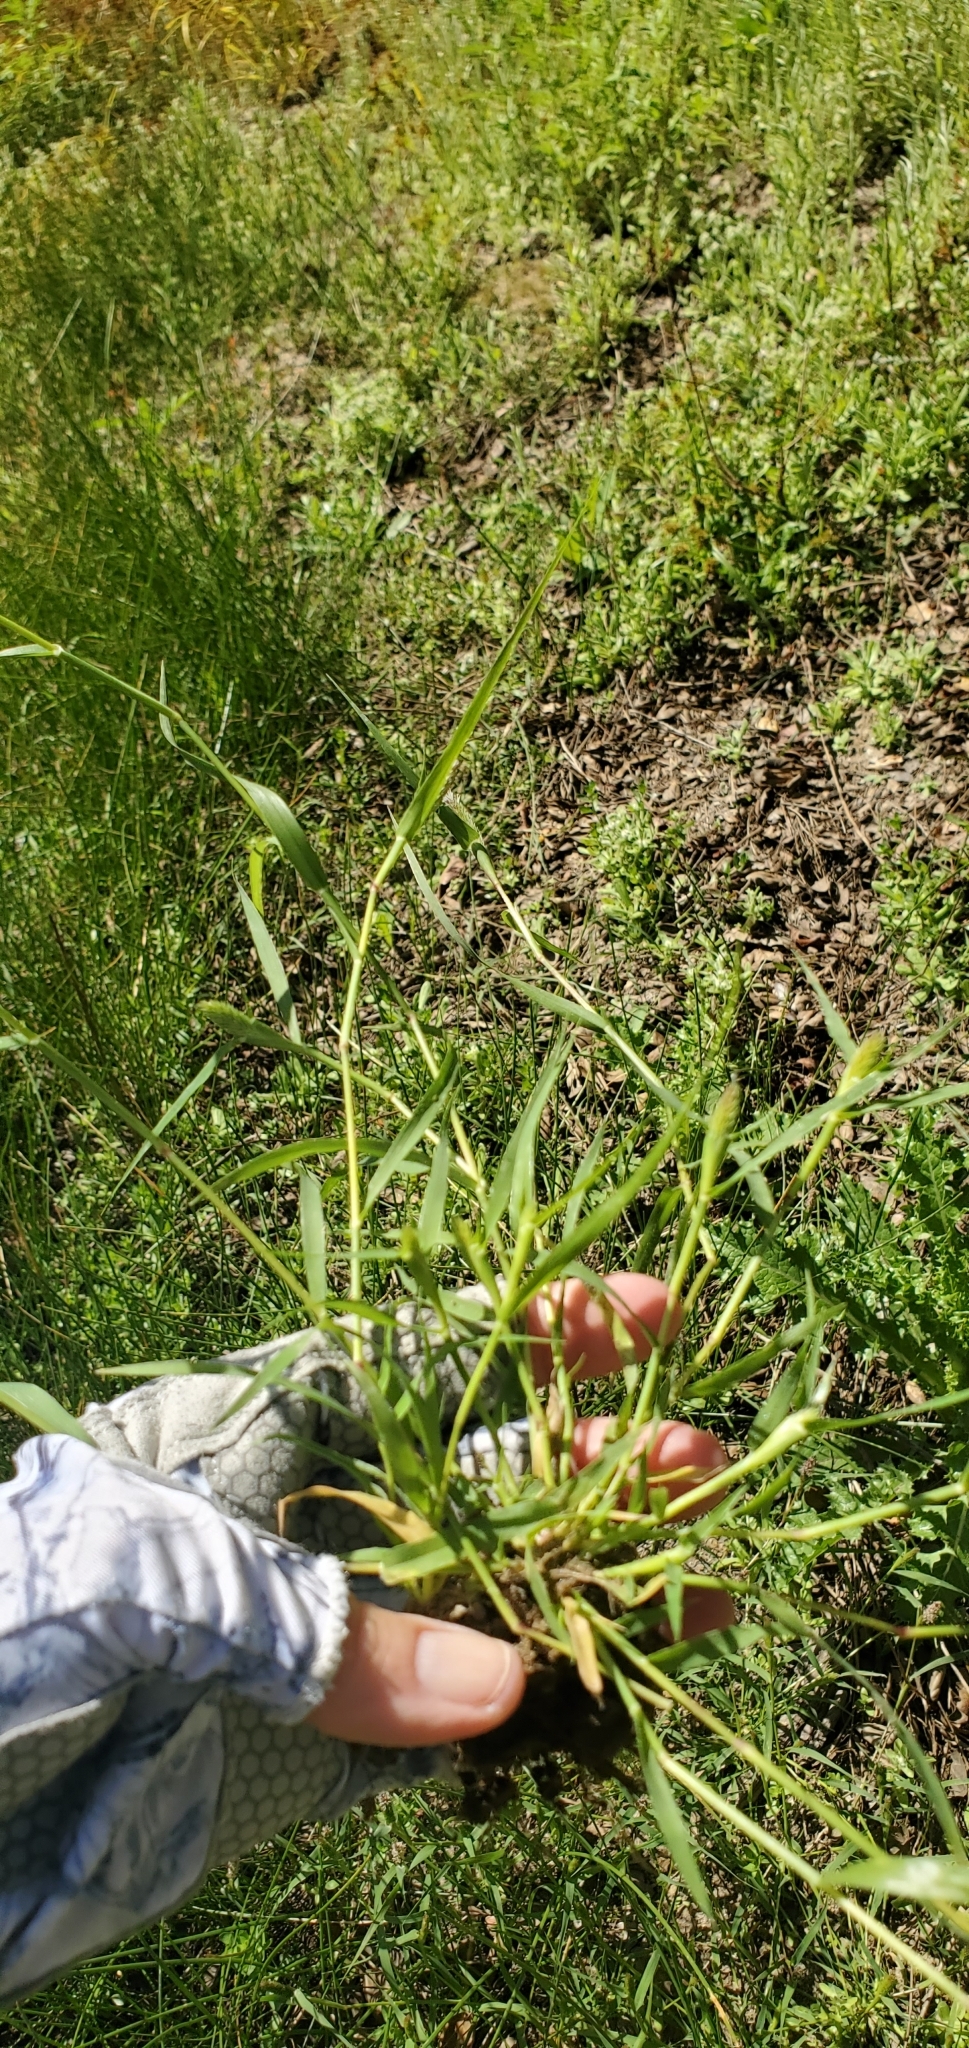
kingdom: Plantae
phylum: Tracheophyta
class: Liliopsida
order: Poales
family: Poaceae
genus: Sporobolus
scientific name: Sporobolus schoenoides
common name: Rush-like timothy
